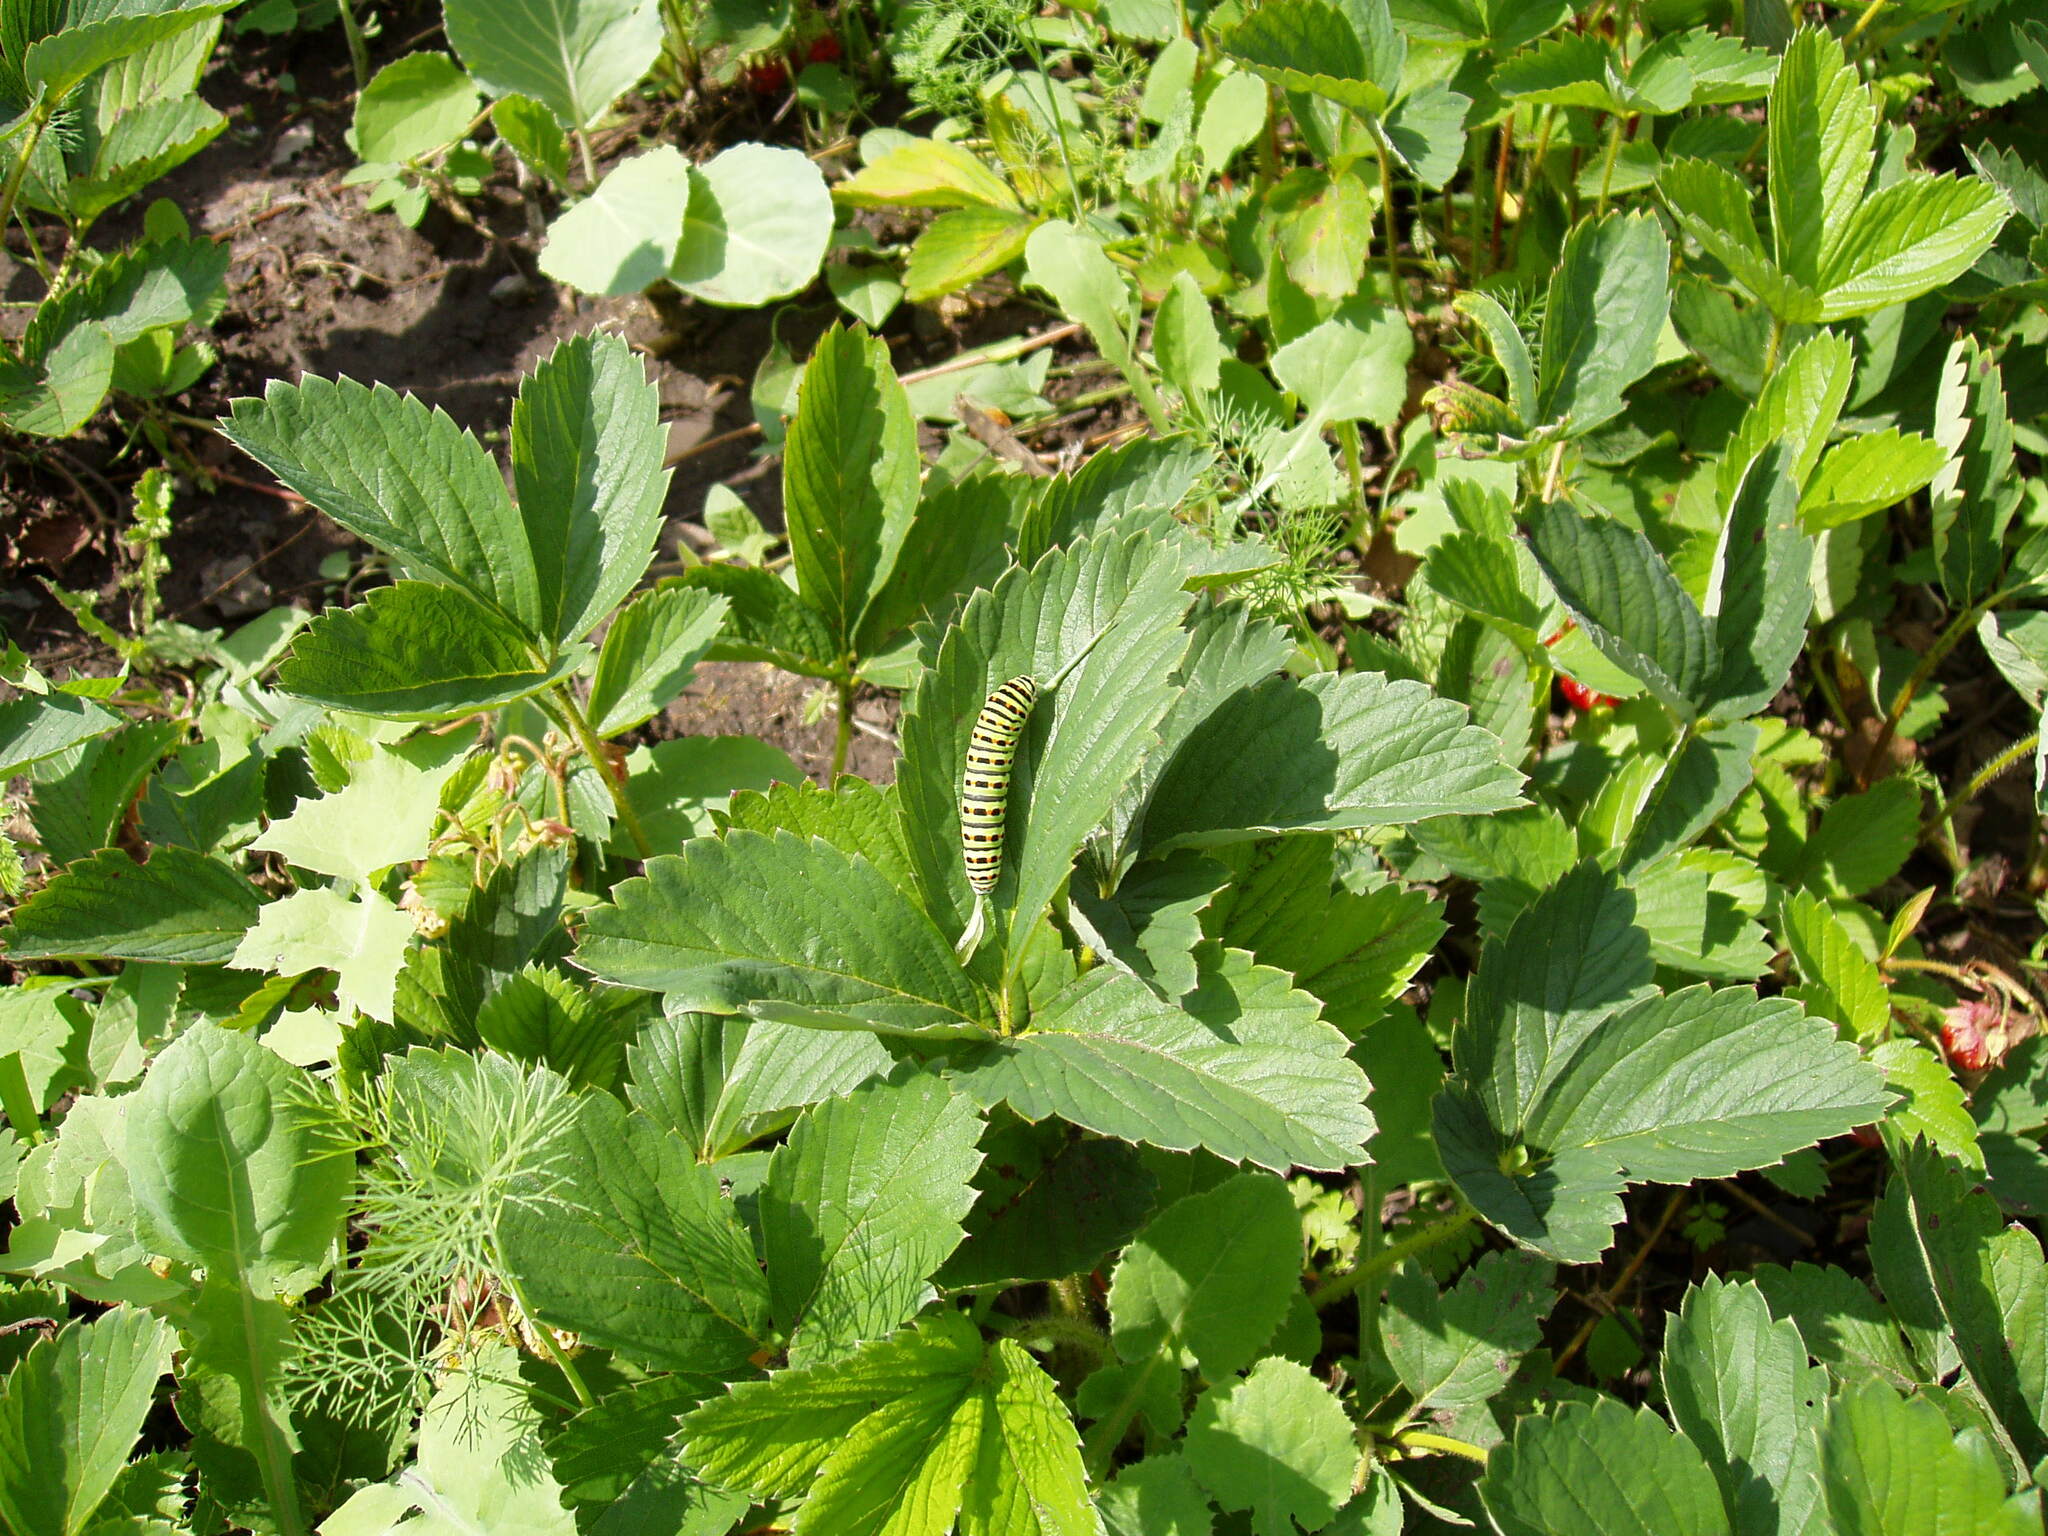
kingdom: Animalia
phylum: Arthropoda
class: Insecta
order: Lepidoptera
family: Papilionidae
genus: Papilio
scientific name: Papilio machaon
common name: Swallowtail
